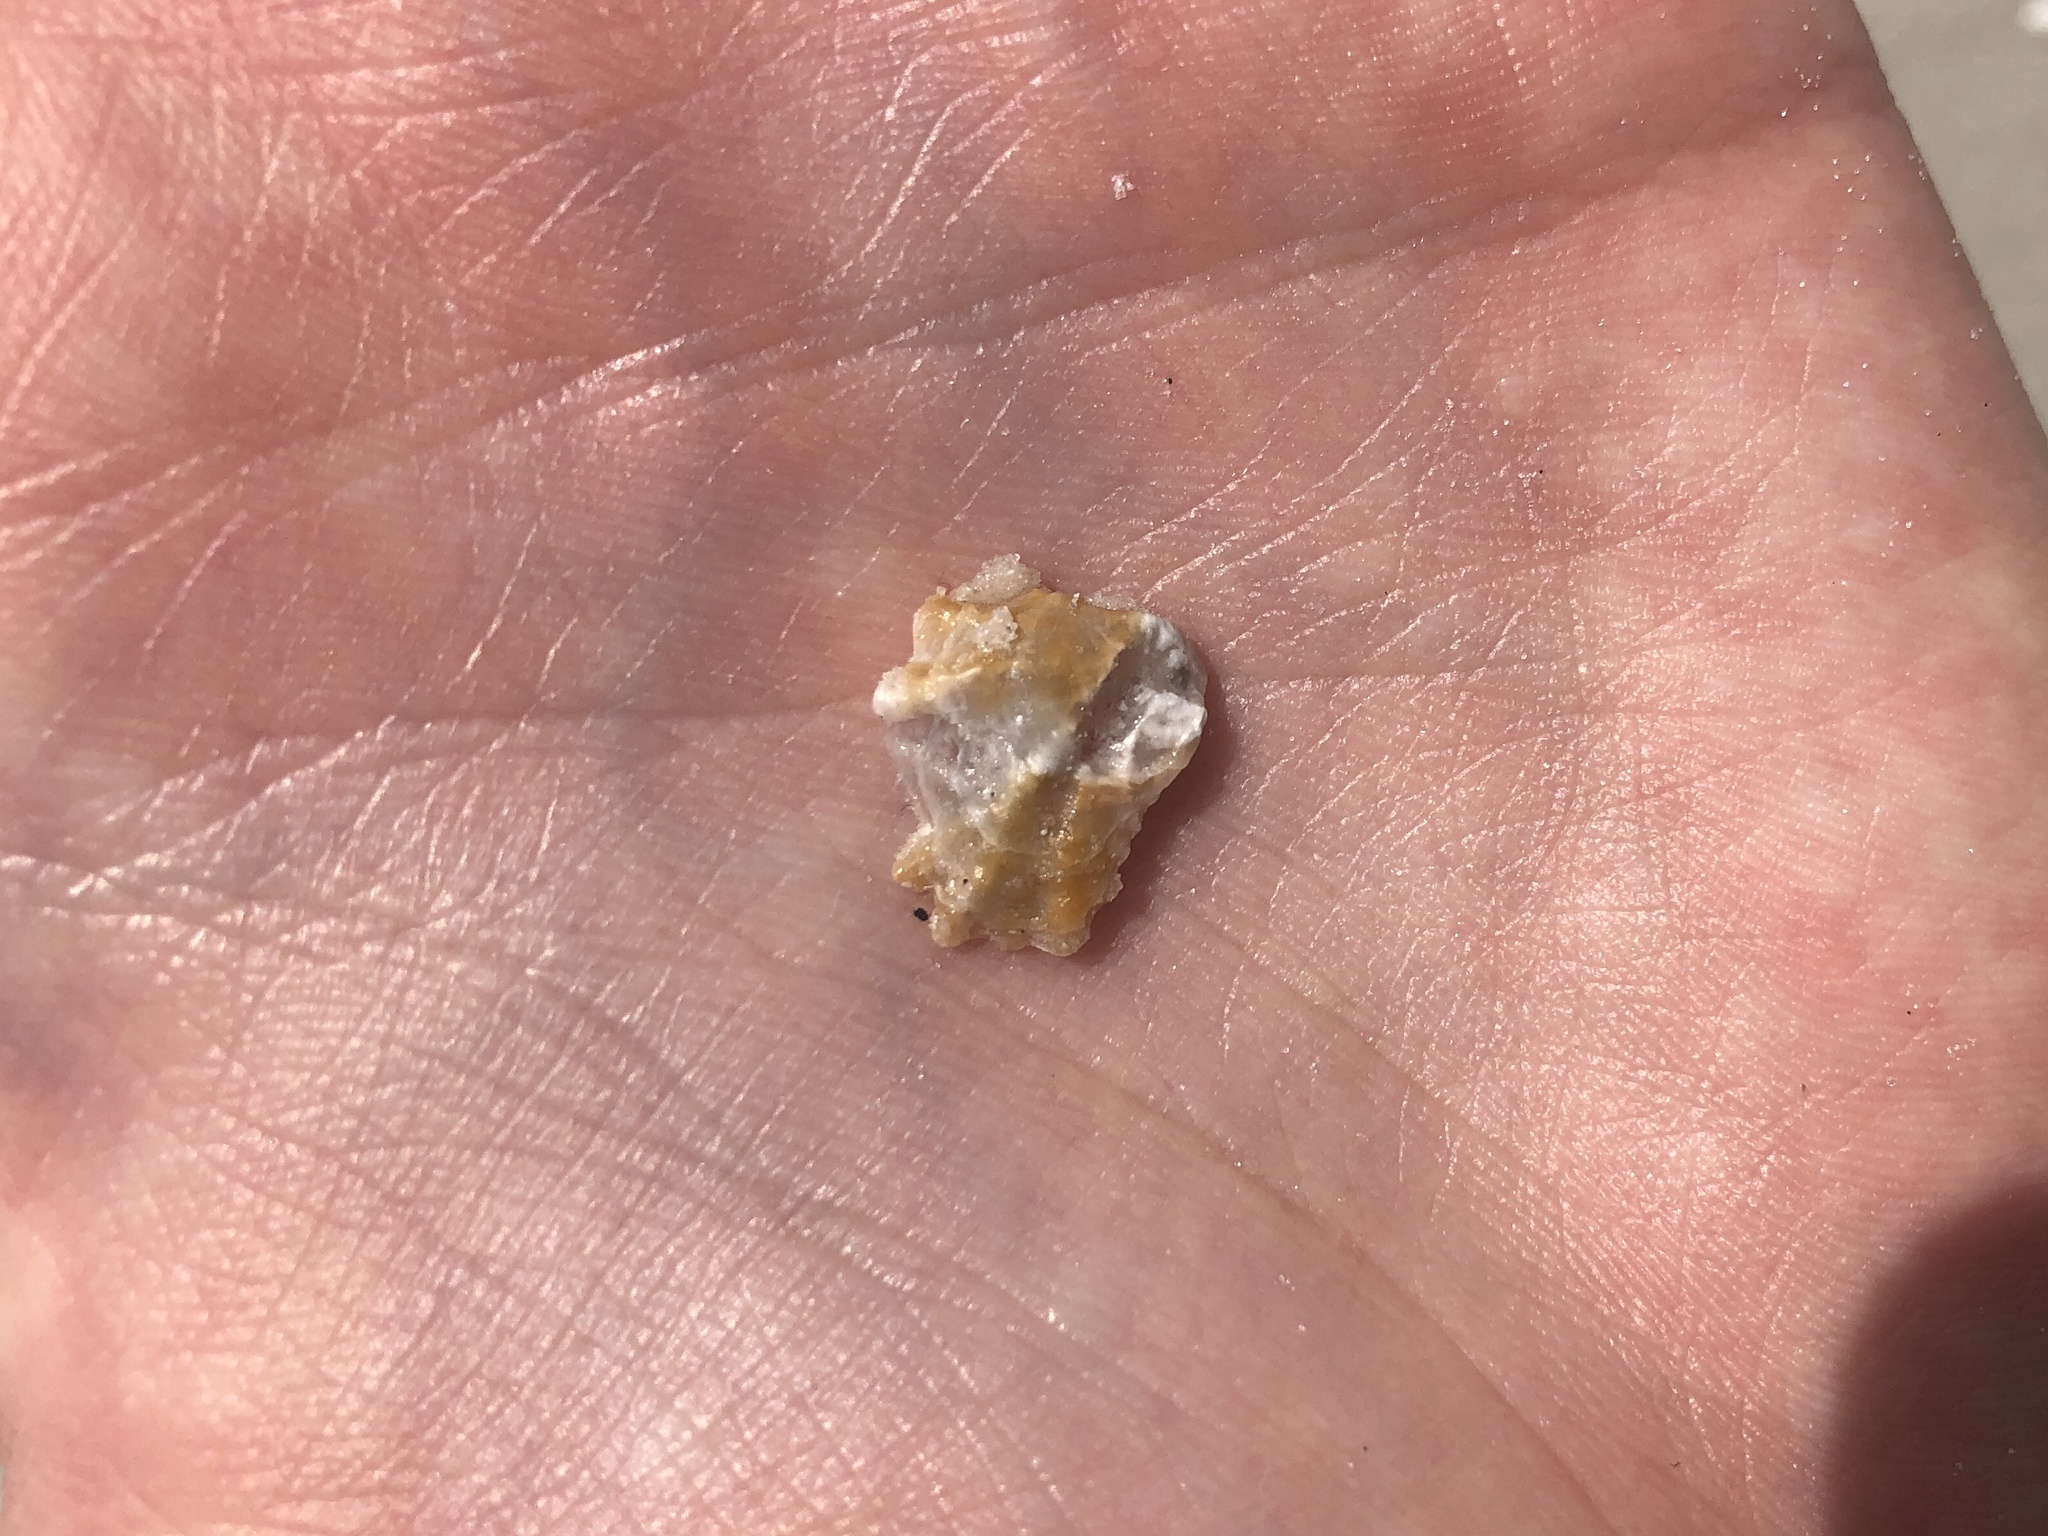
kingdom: Animalia
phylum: Mollusca
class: Bivalvia
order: Pectinida
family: Plicatulidae
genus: Plicatula
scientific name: Plicatula gibbosa
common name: Atlantic kitten's paw
